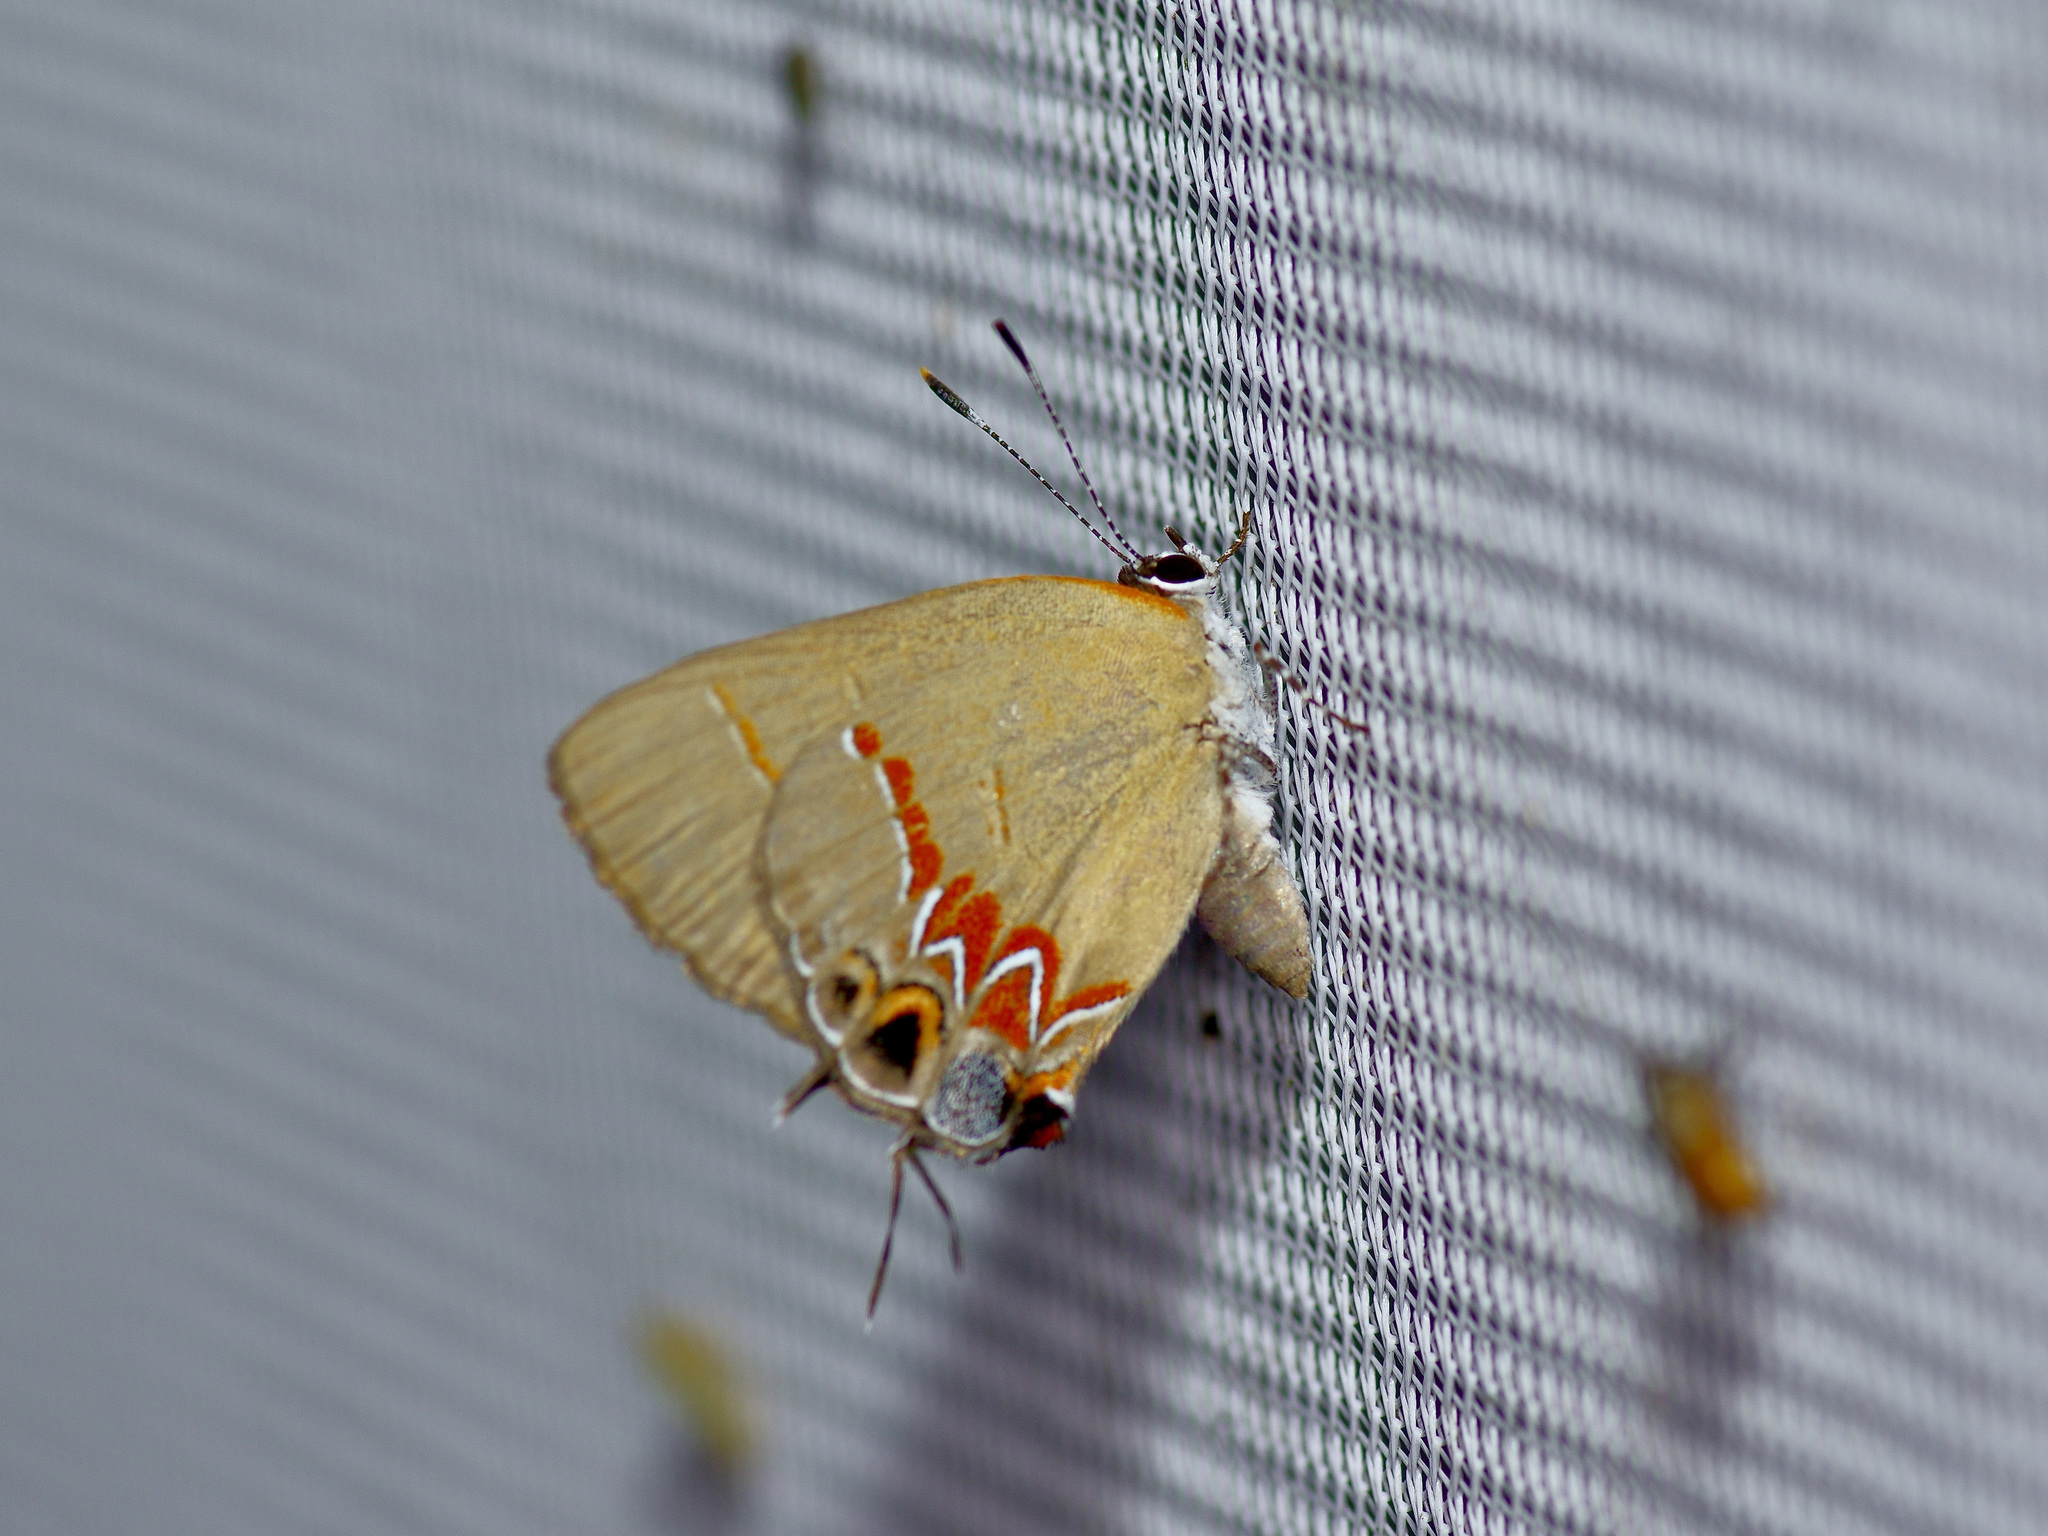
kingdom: Animalia
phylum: Arthropoda
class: Insecta
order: Lepidoptera
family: Lycaenidae
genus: Calycopis
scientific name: Calycopis isobeon
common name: Dusky-blue groundstreak
